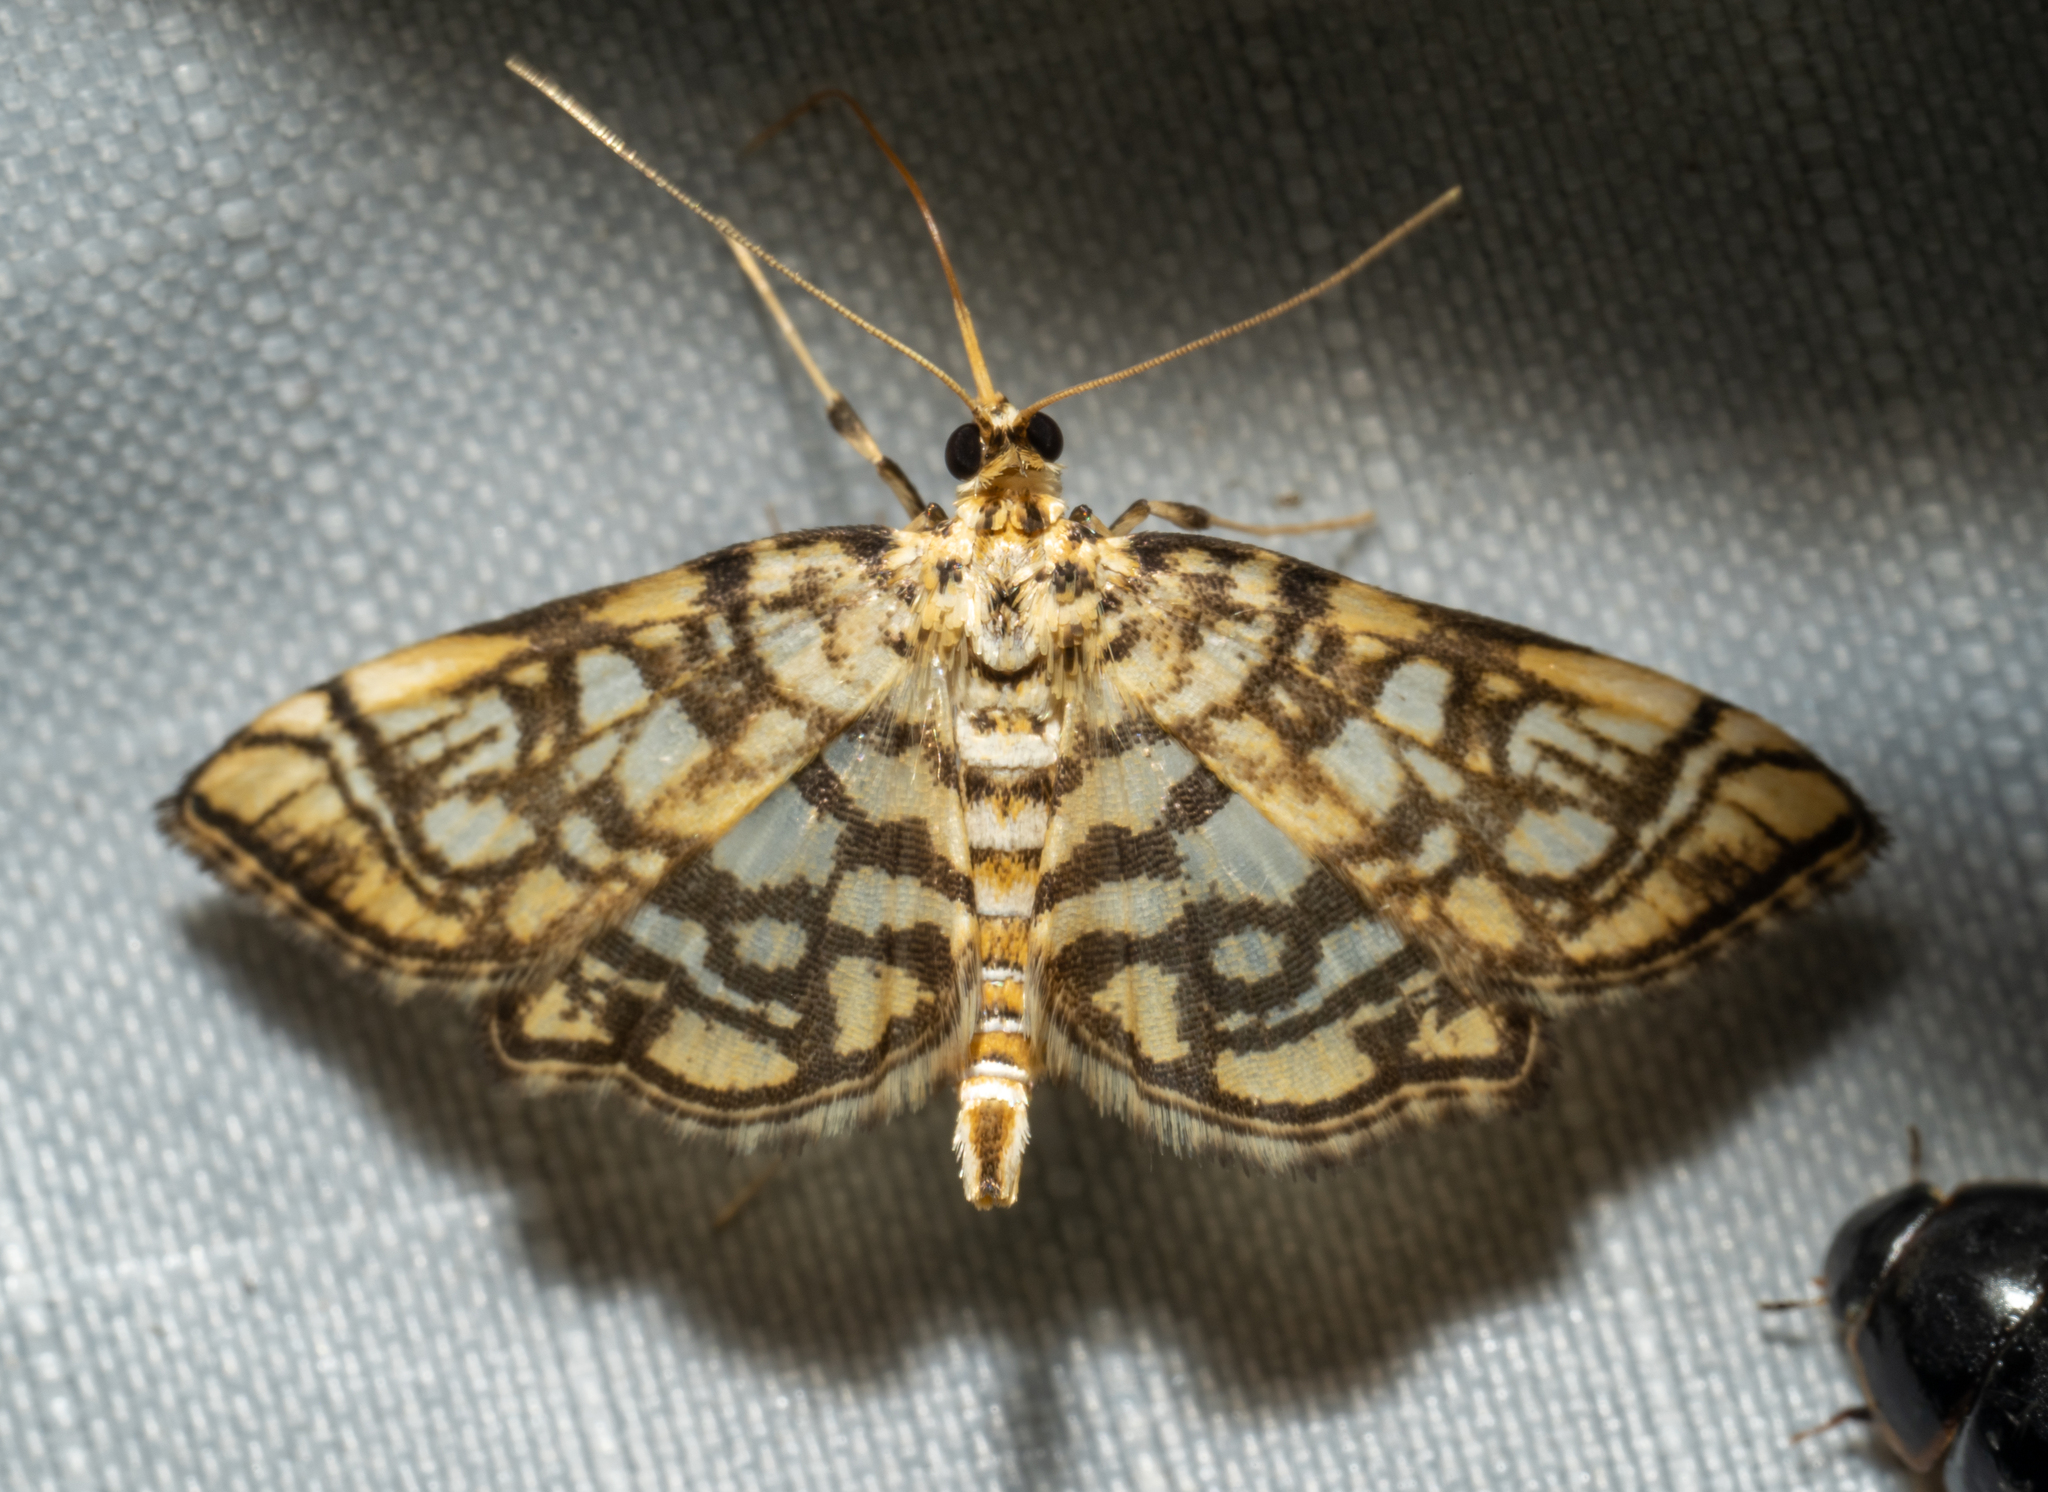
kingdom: Animalia
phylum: Arthropoda
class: Insecta
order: Lepidoptera
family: Crambidae
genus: Lygropia
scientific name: Lygropia rivulalis
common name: Bog lygropia moth
